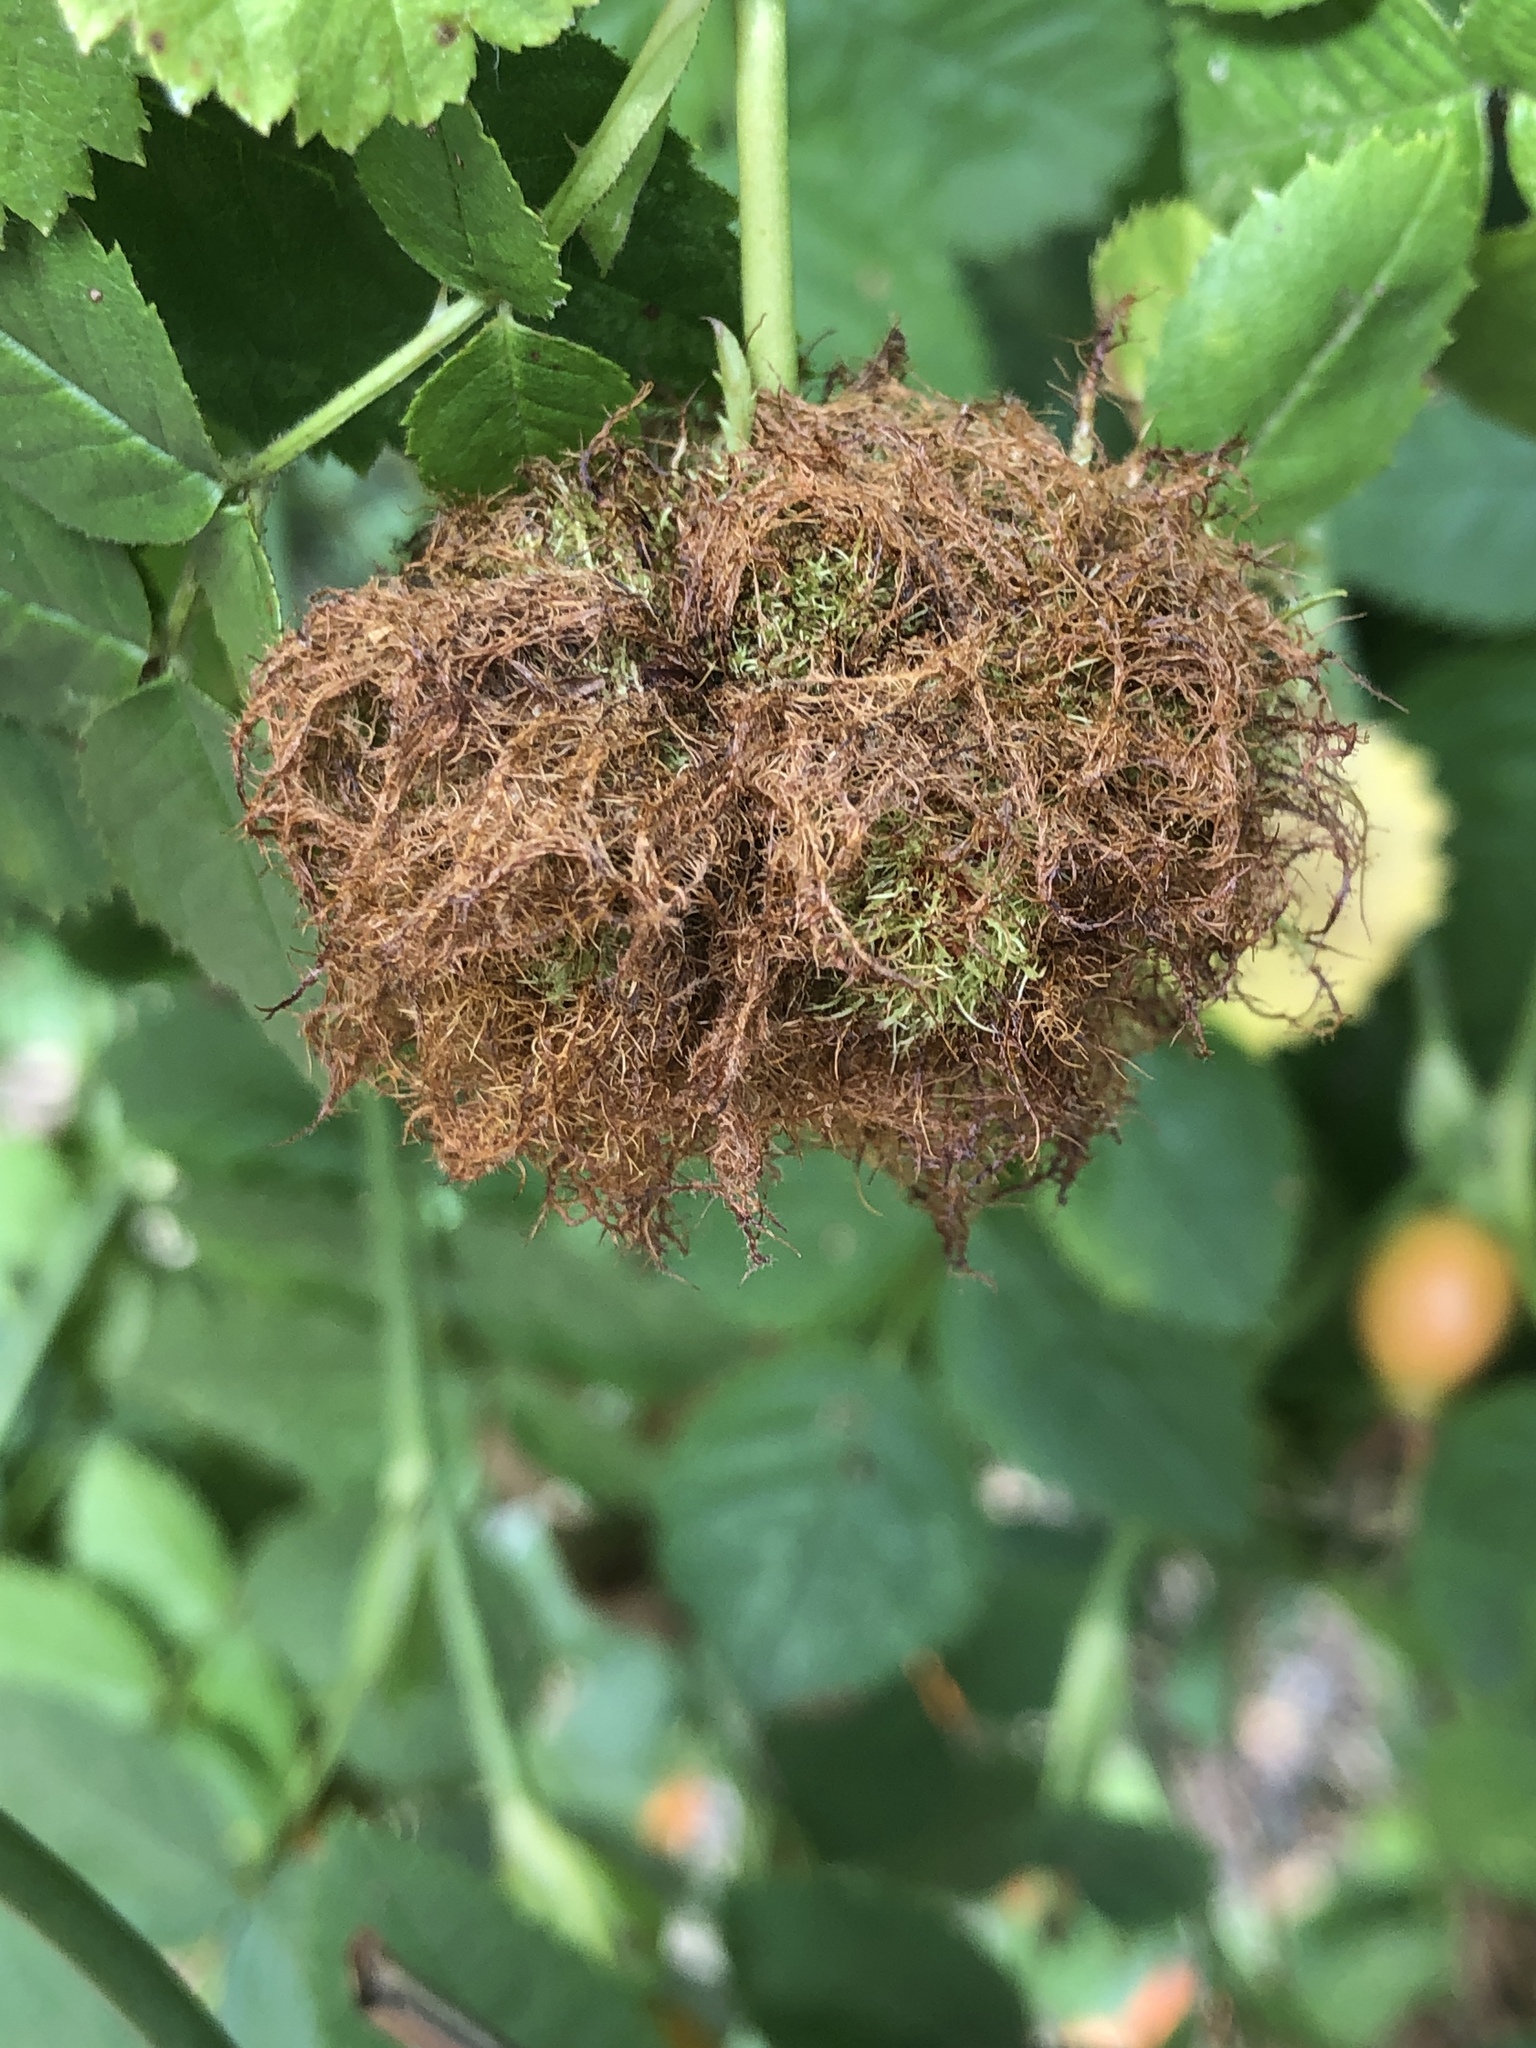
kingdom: Animalia
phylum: Arthropoda
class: Insecta
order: Hymenoptera
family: Cynipidae
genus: Diplolepis
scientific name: Diplolepis rosae
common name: Bedeguar gall
